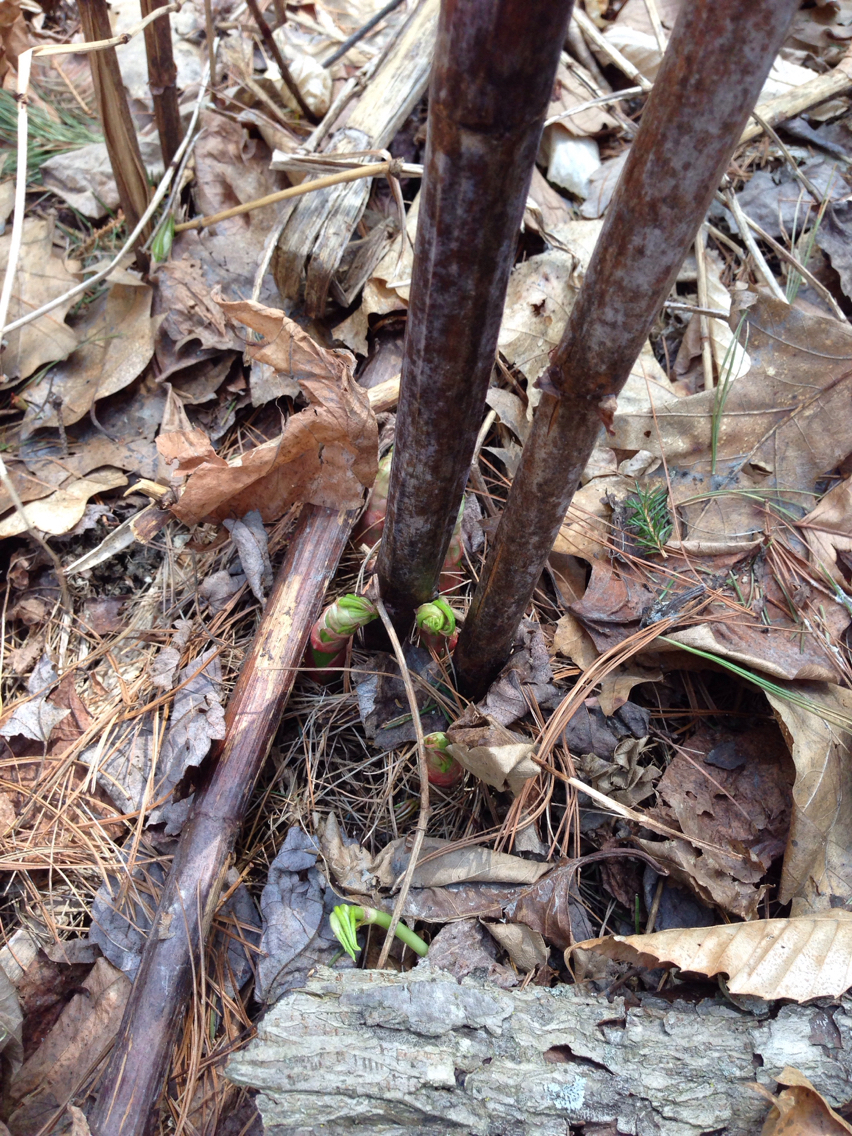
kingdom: Plantae
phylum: Tracheophyta
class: Magnoliopsida
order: Caryophyllales
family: Polygonaceae
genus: Reynoutria
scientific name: Reynoutria japonica
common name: Japanese knotweed
